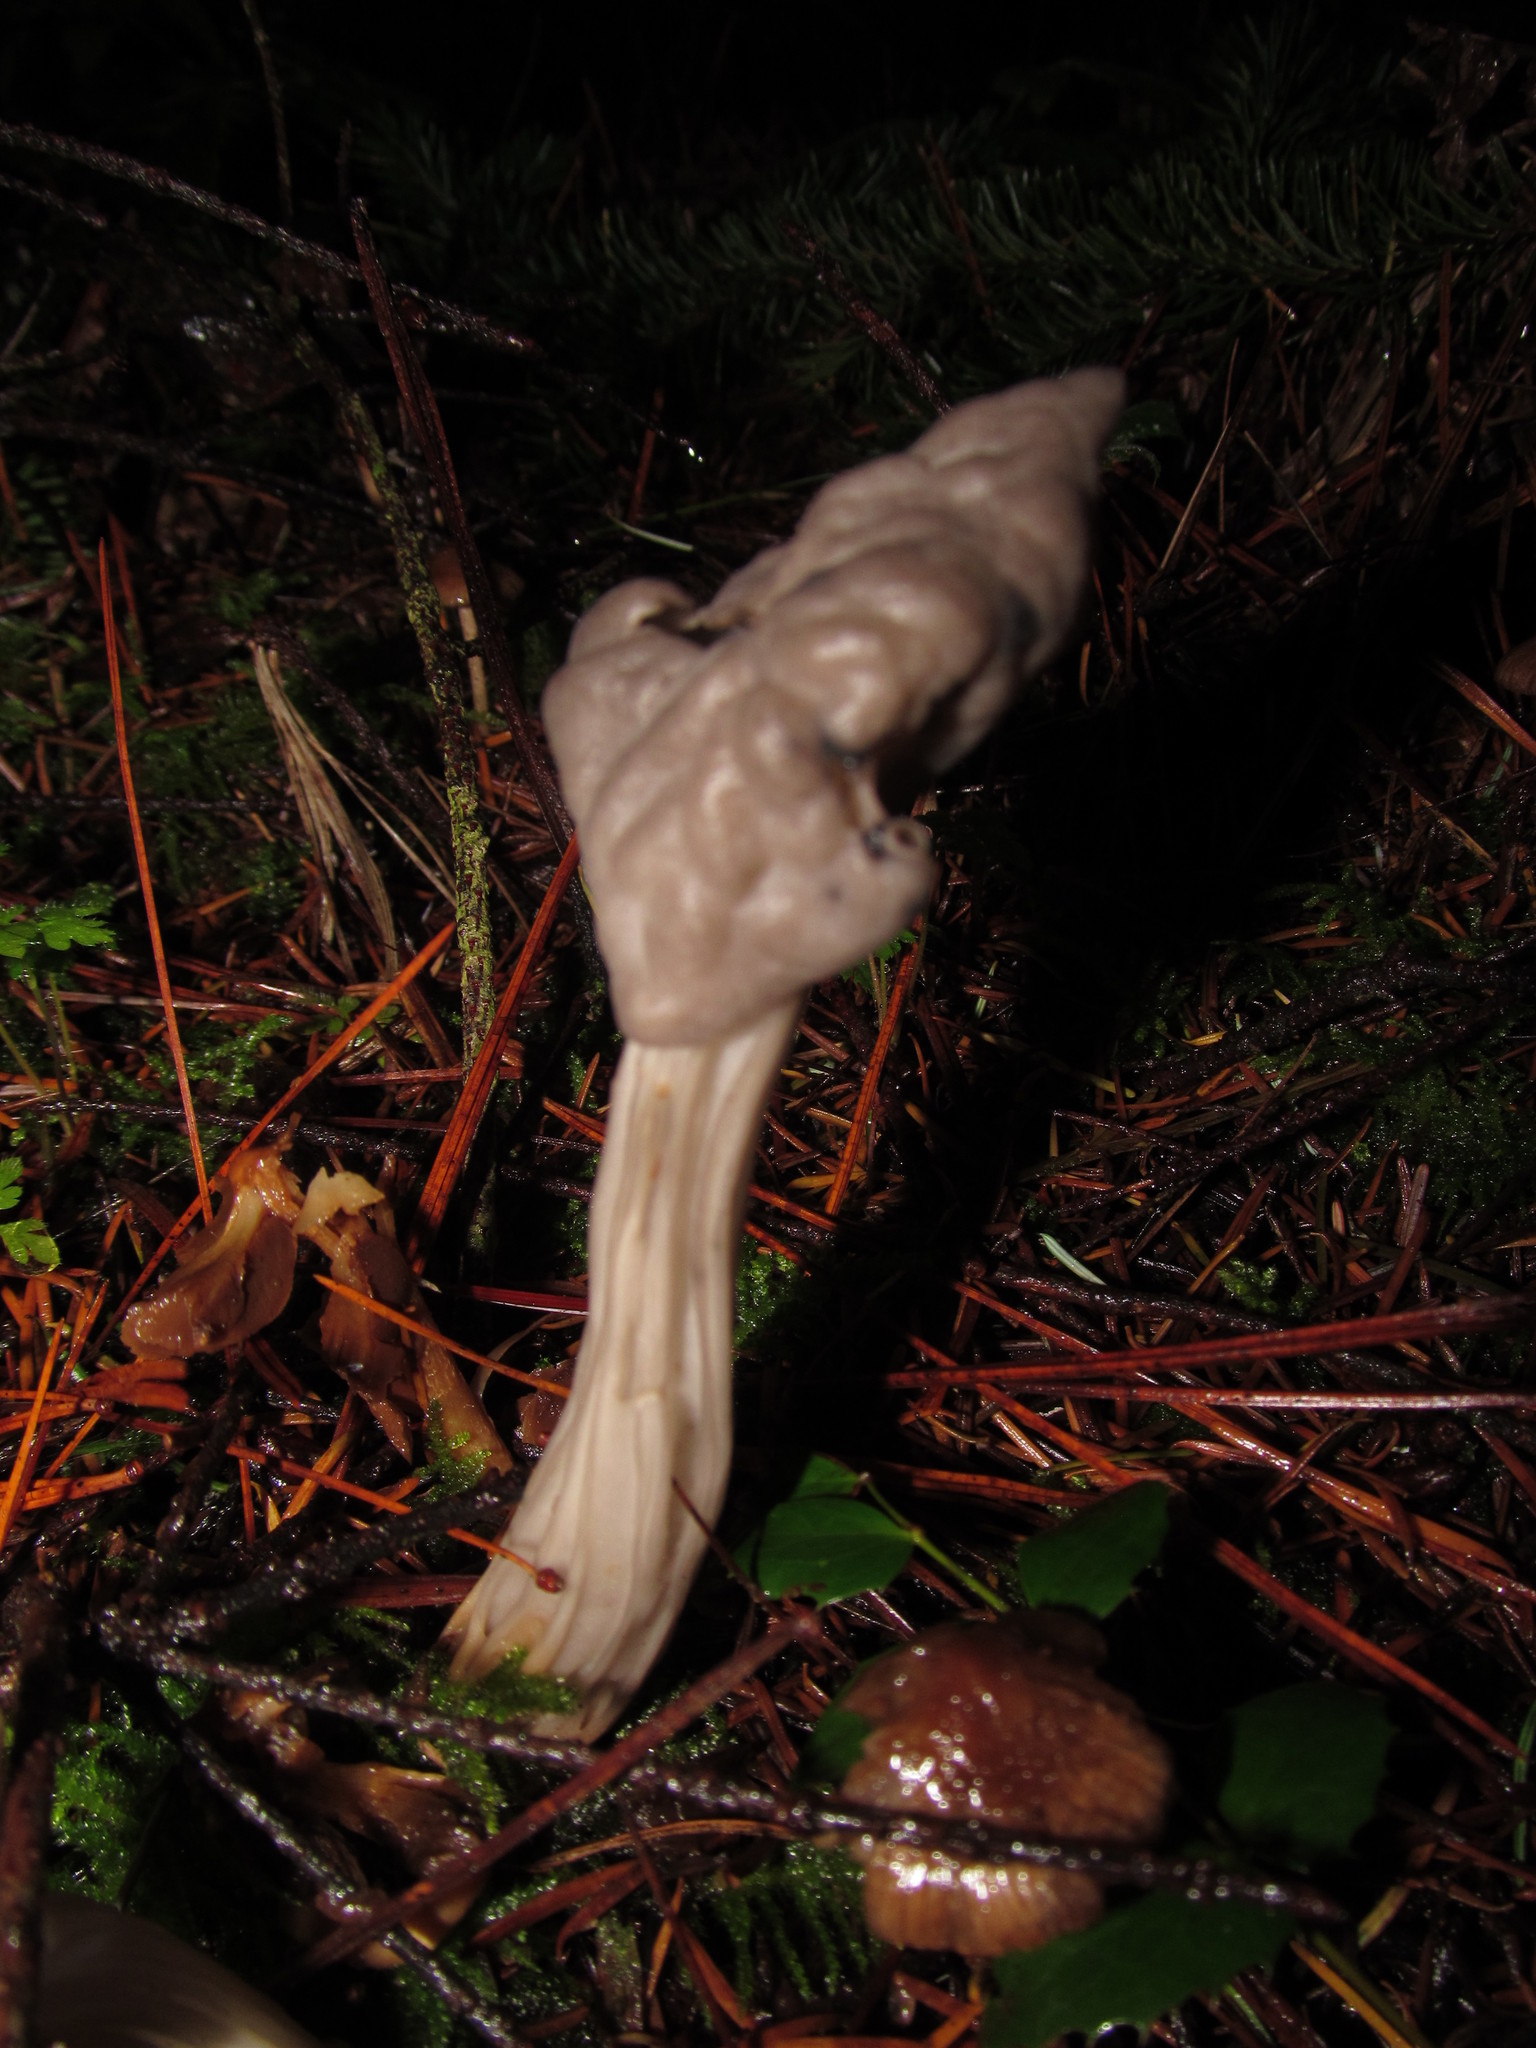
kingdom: Fungi
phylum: Ascomycota
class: Pezizomycetes
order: Pezizales
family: Helvellaceae
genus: Helvella
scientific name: Helvella vespertina
